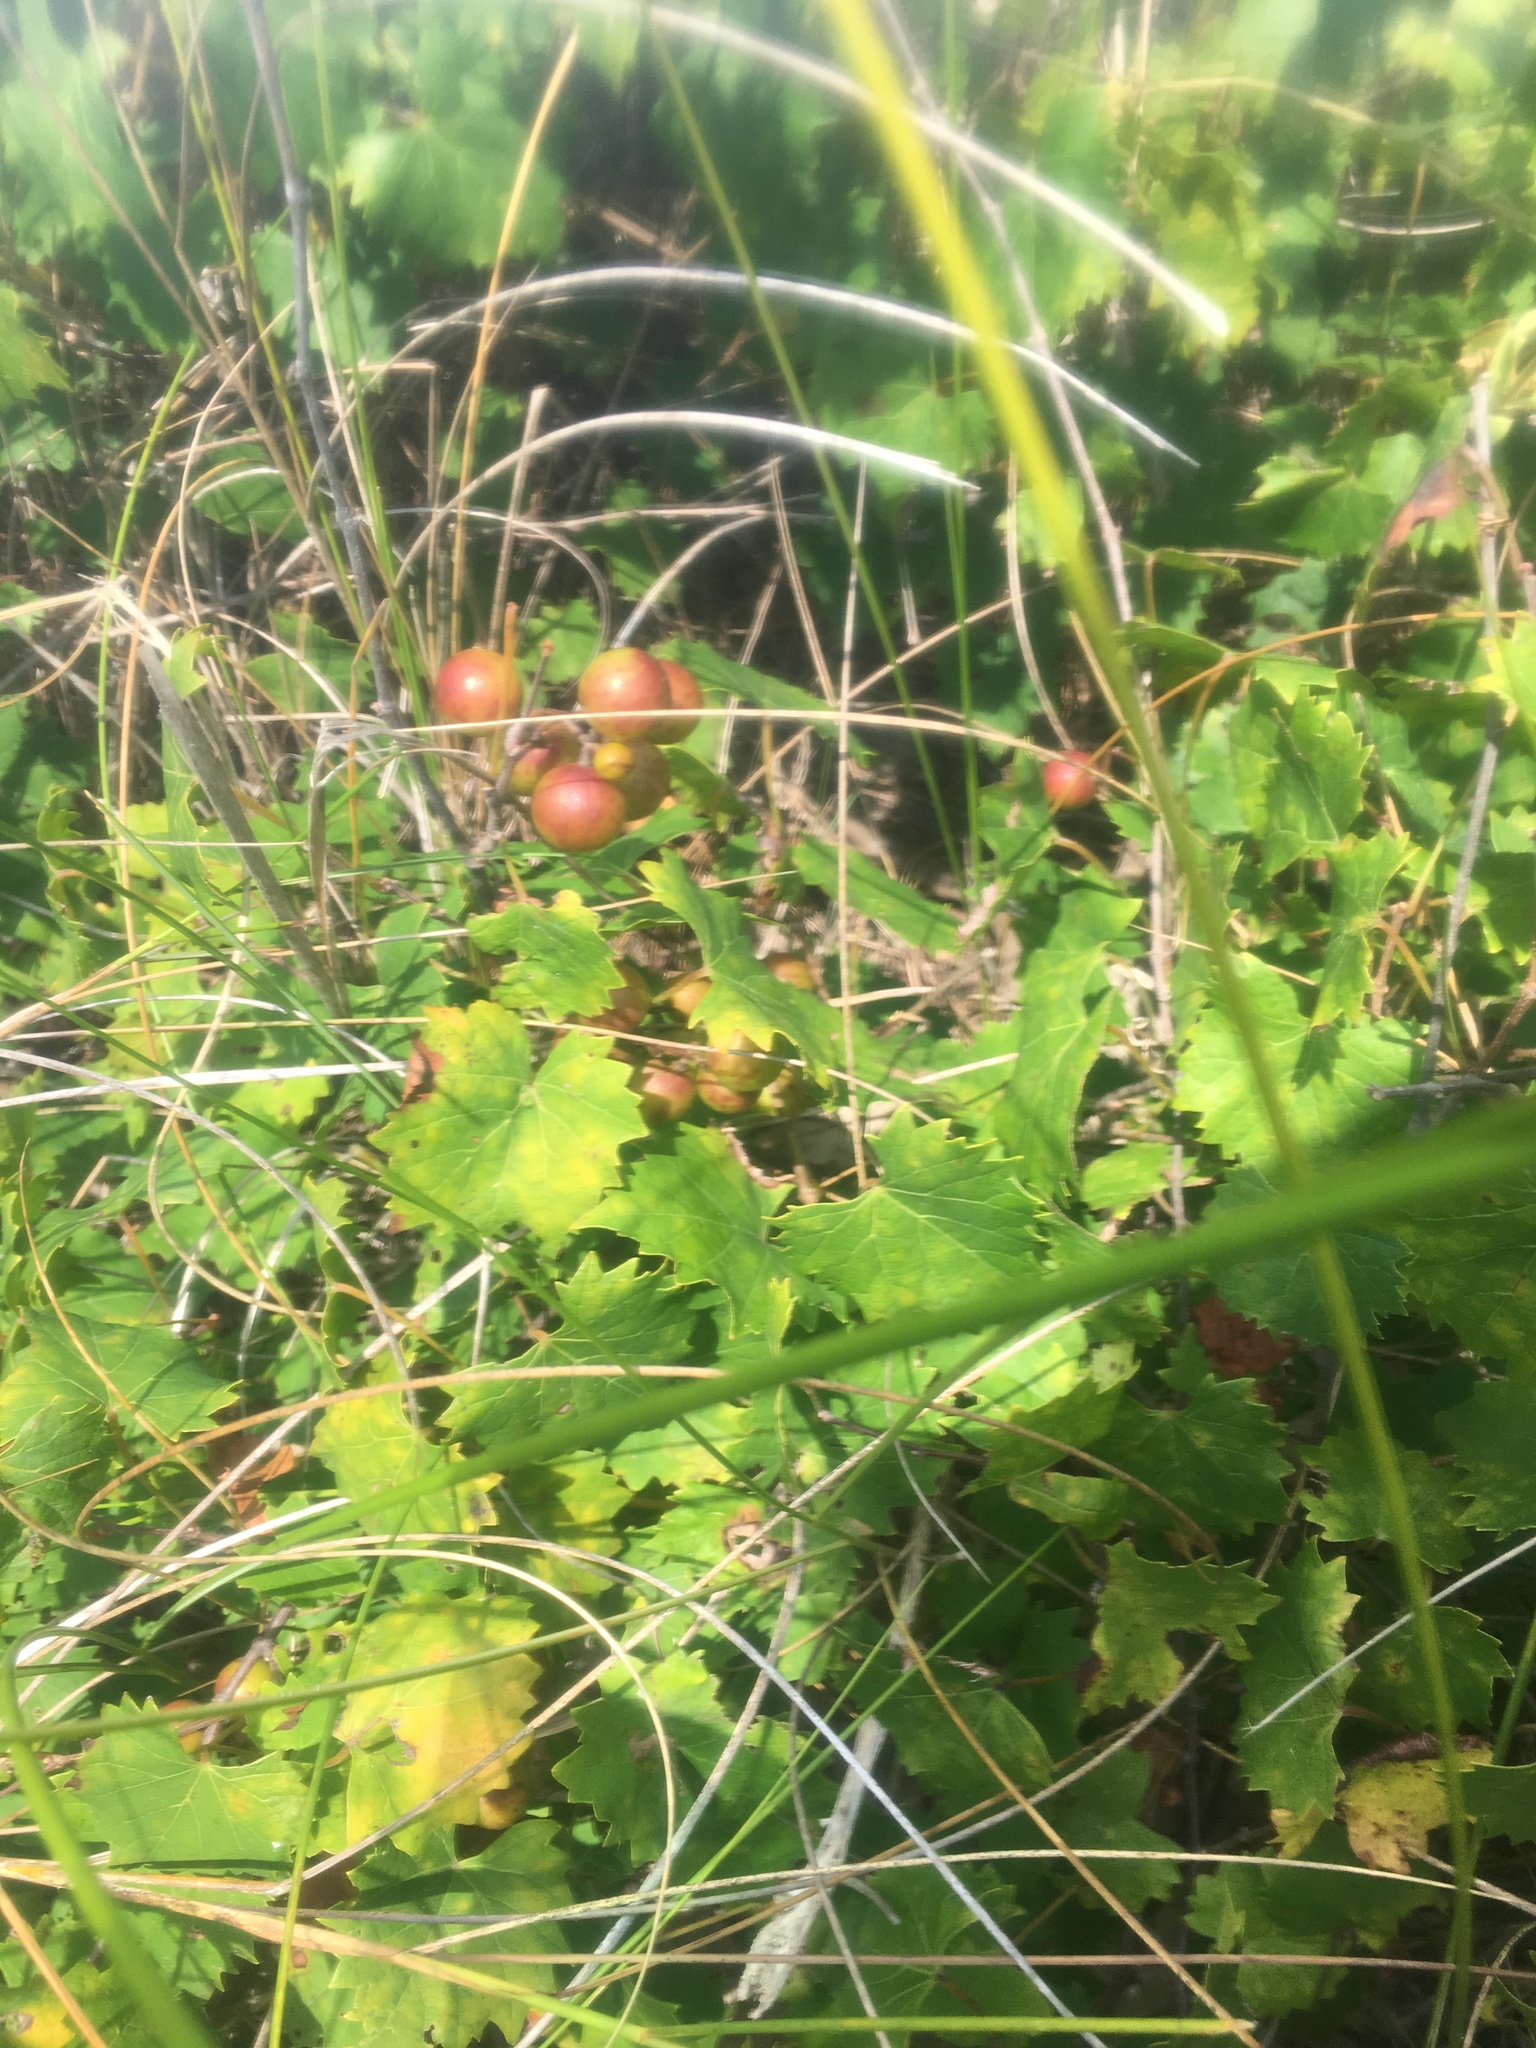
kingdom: Plantae
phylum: Tracheophyta
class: Magnoliopsida
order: Vitales
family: Vitaceae
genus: Vitis
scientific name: Vitis rotundifolia
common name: Muscadine grape
